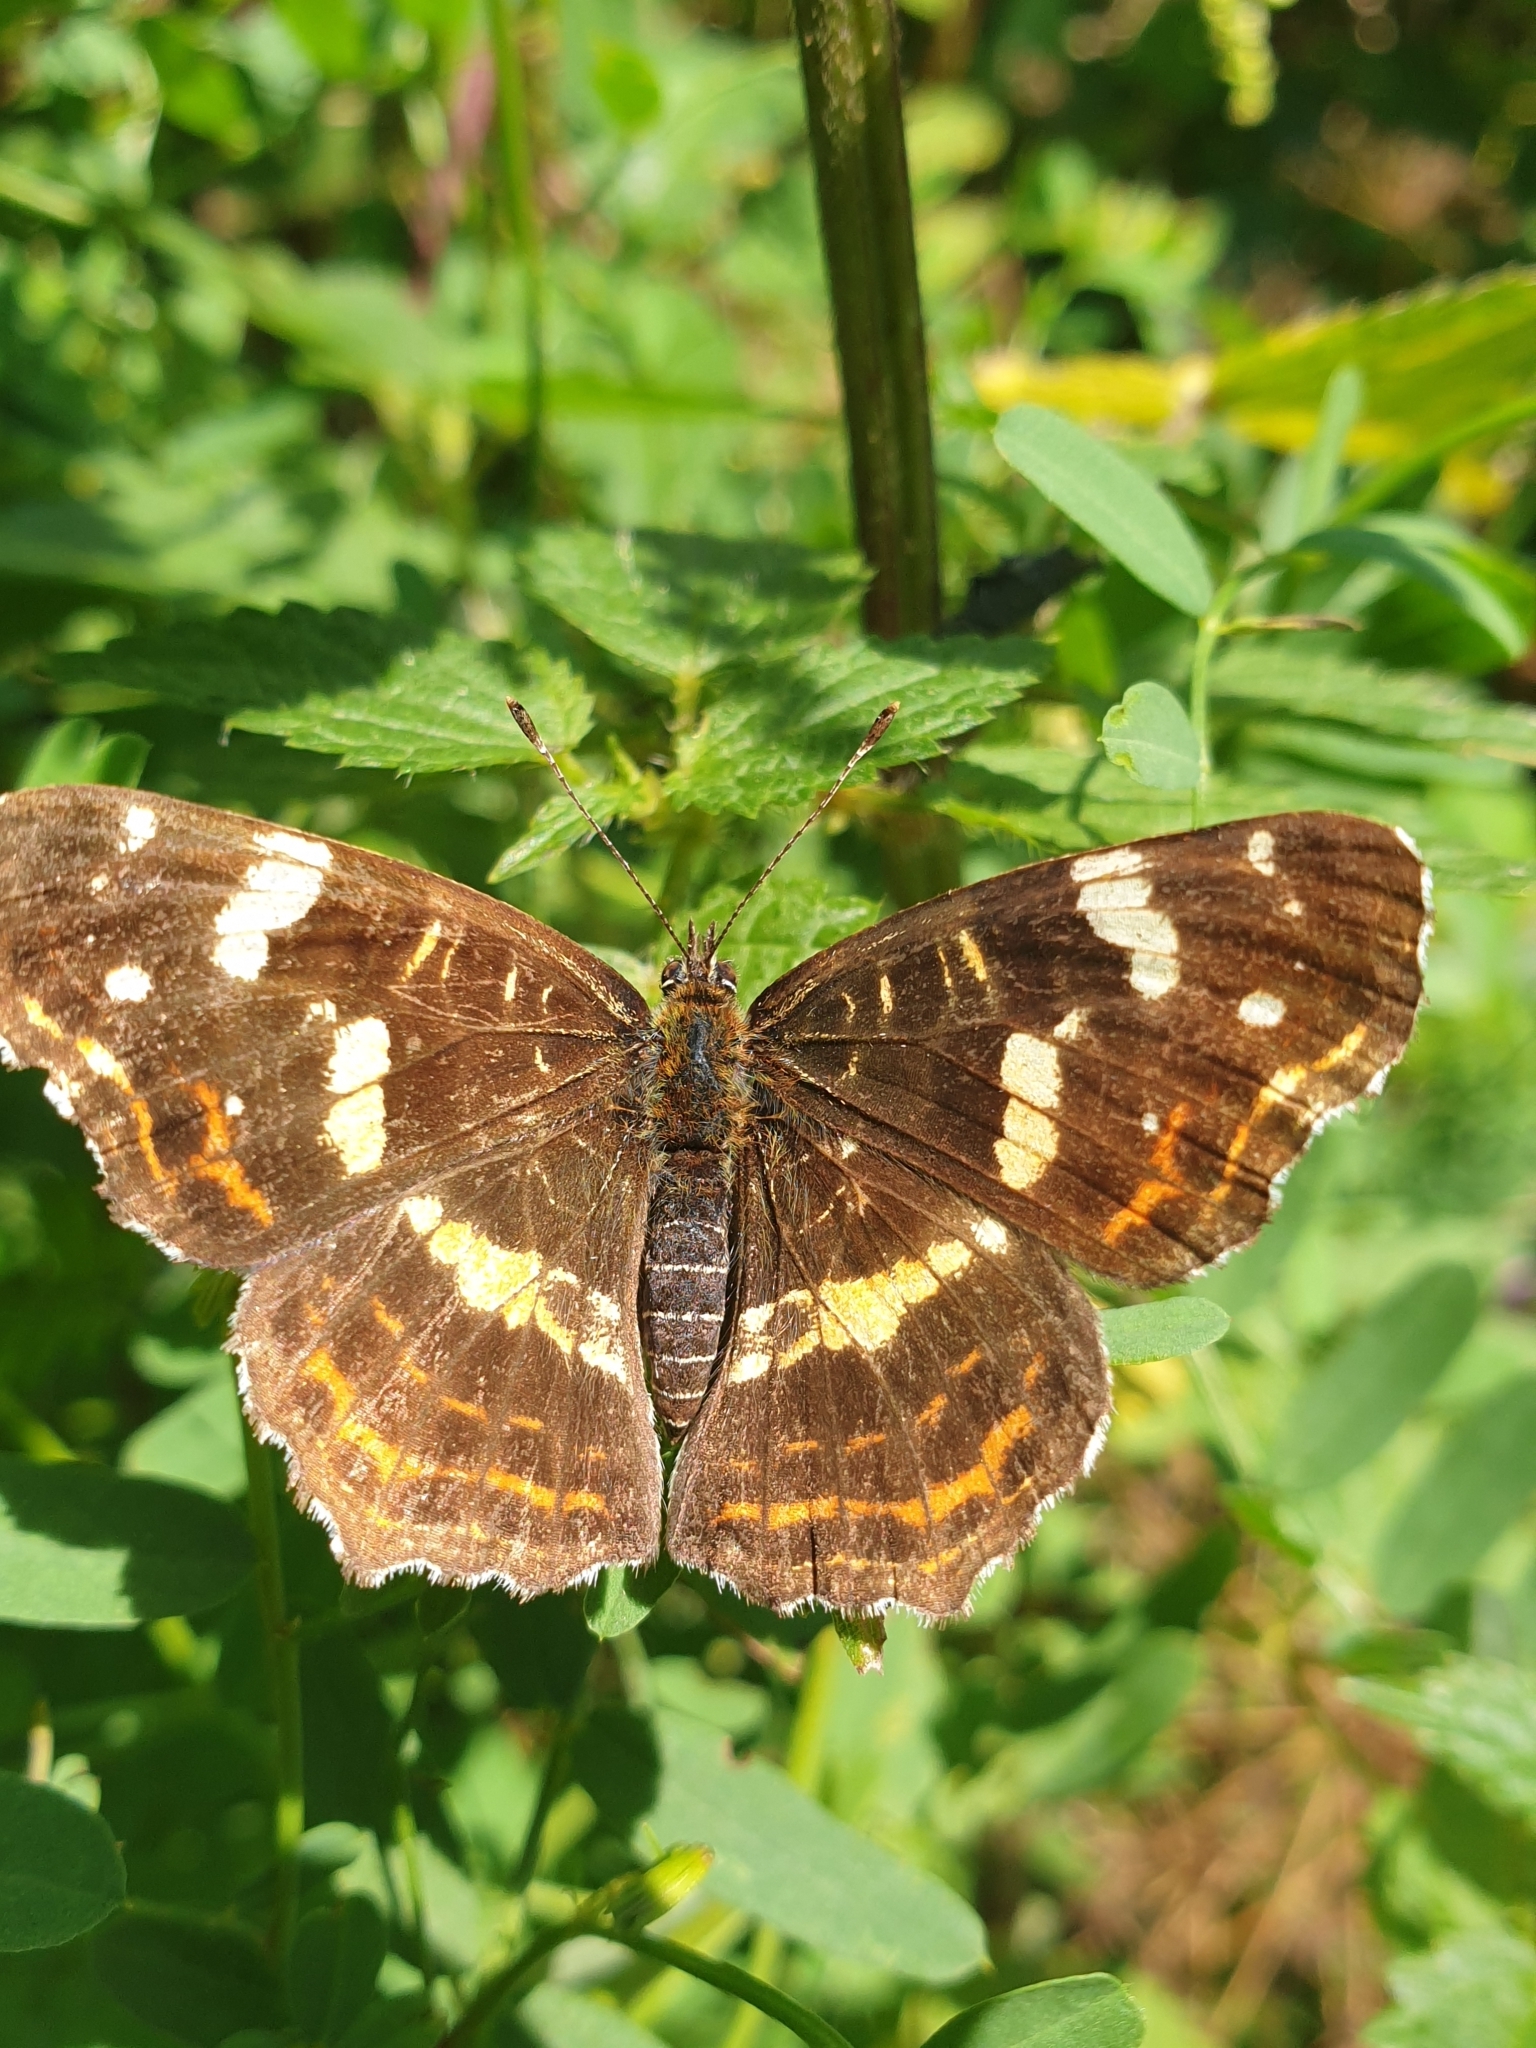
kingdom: Animalia
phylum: Arthropoda
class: Insecta
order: Lepidoptera
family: Nymphalidae
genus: Araschnia
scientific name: Araschnia levana
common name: Map butterfly
